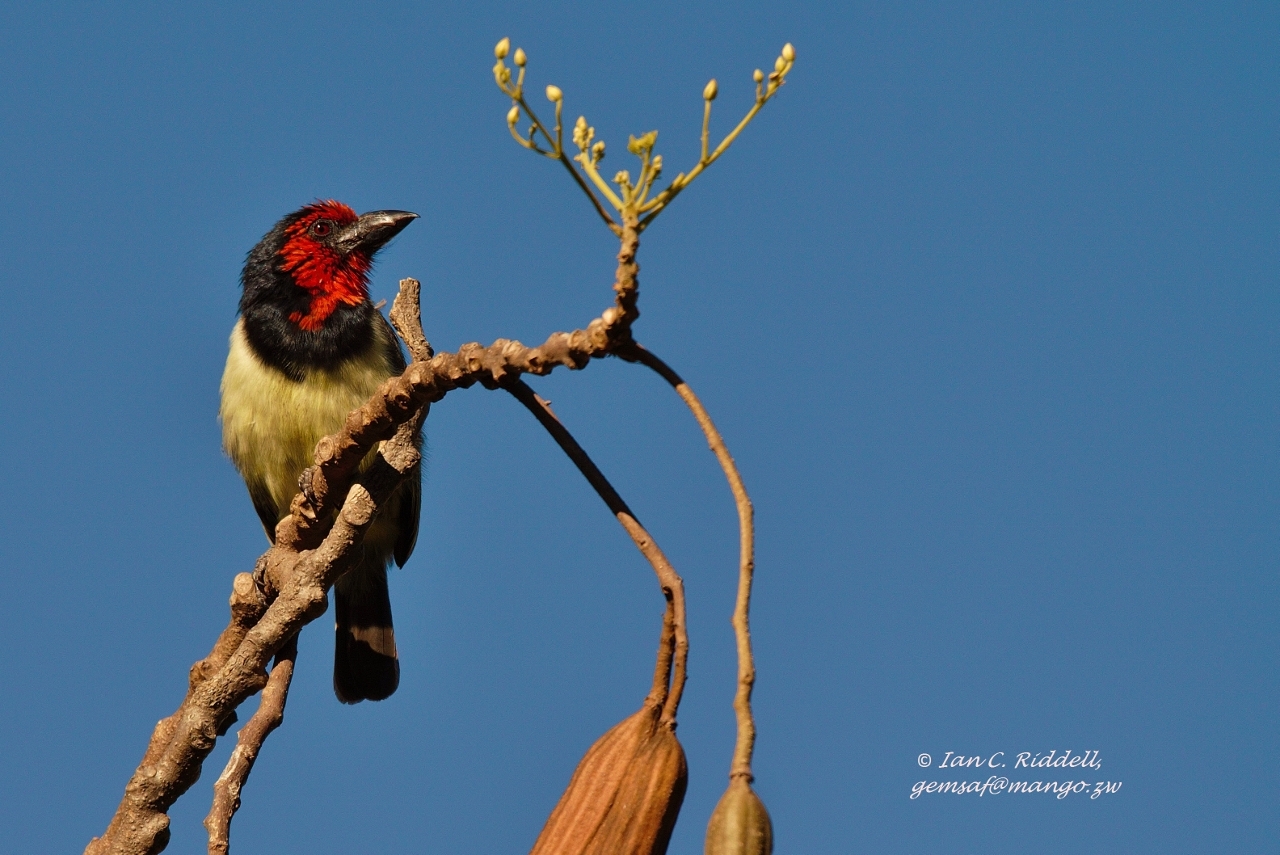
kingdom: Animalia
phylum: Chordata
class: Aves
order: Piciformes
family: Lybiidae
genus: Lybius
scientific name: Lybius torquatus
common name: Black-collared barbet
